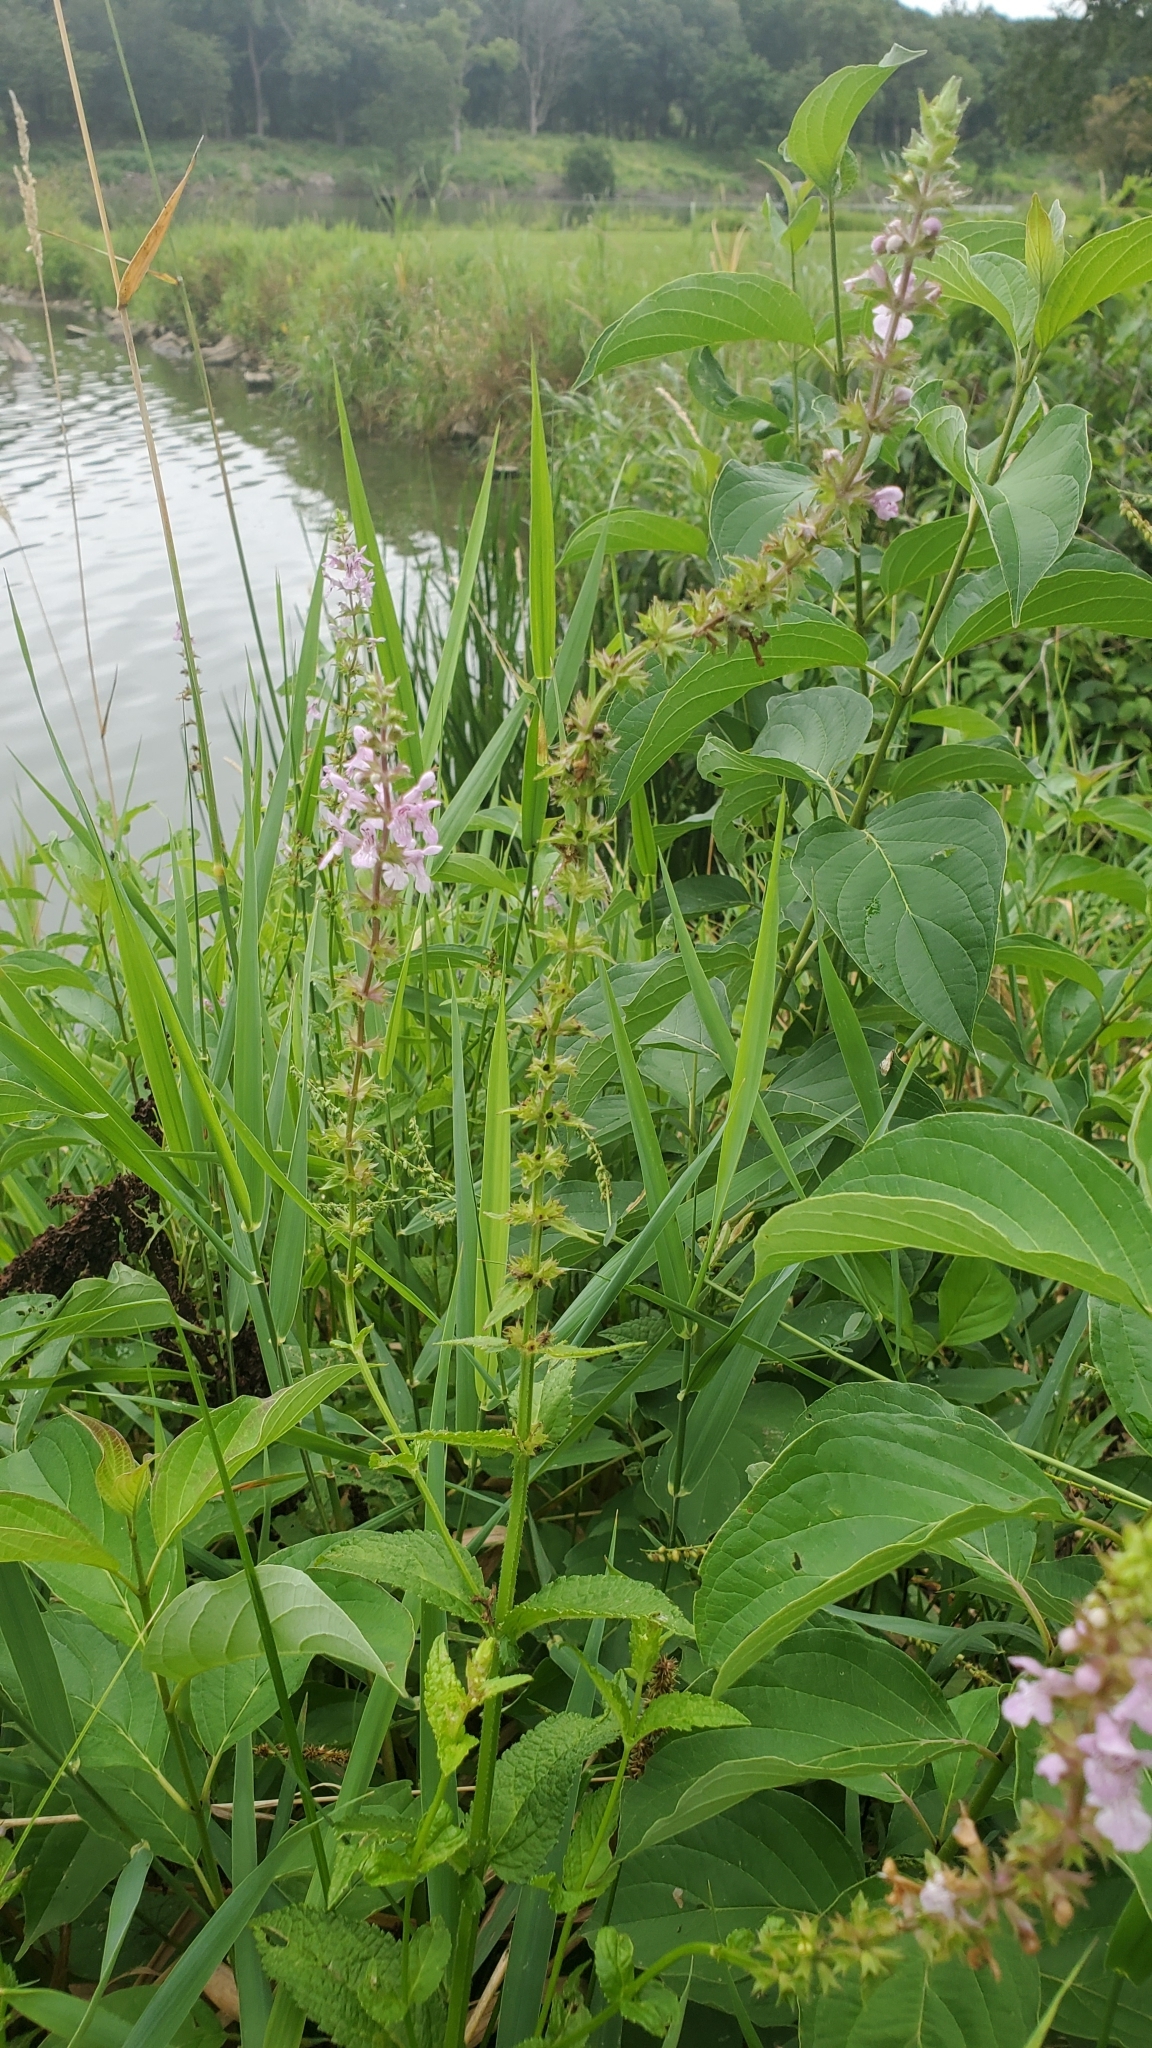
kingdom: Plantae
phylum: Tracheophyta
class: Magnoliopsida
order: Lamiales
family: Lamiaceae
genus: Stachys
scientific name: Stachys hispida
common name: Hispid hedge-nettle
